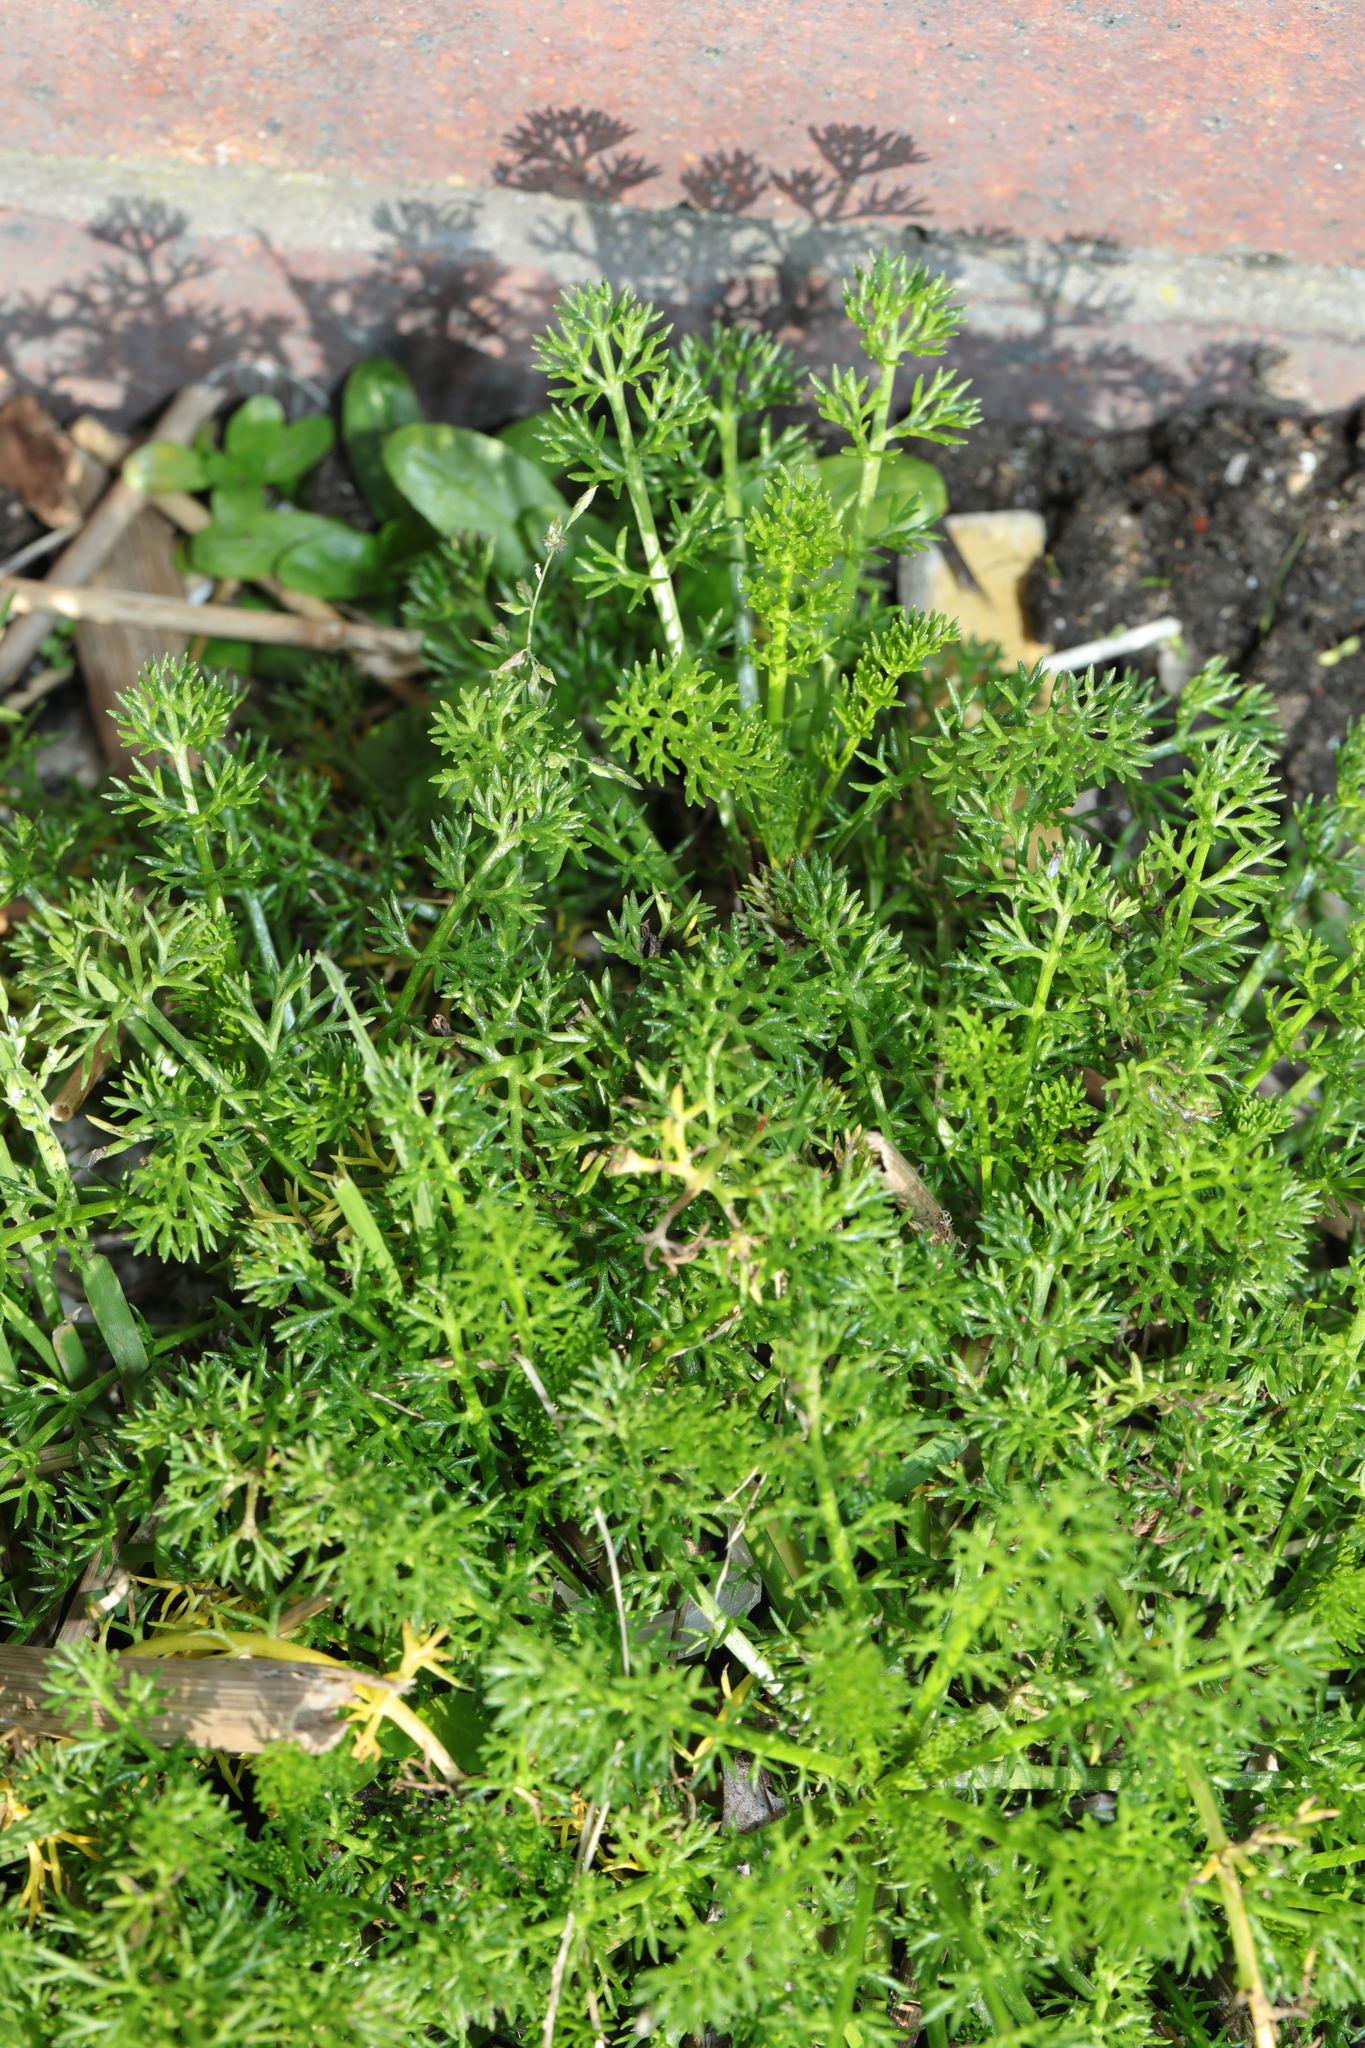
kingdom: Plantae
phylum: Tracheophyta
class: Magnoliopsida
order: Asterales
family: Asteraceae
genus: Tripleurospermum
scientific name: Tripleurospermum maritimum
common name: Sea mayweed
